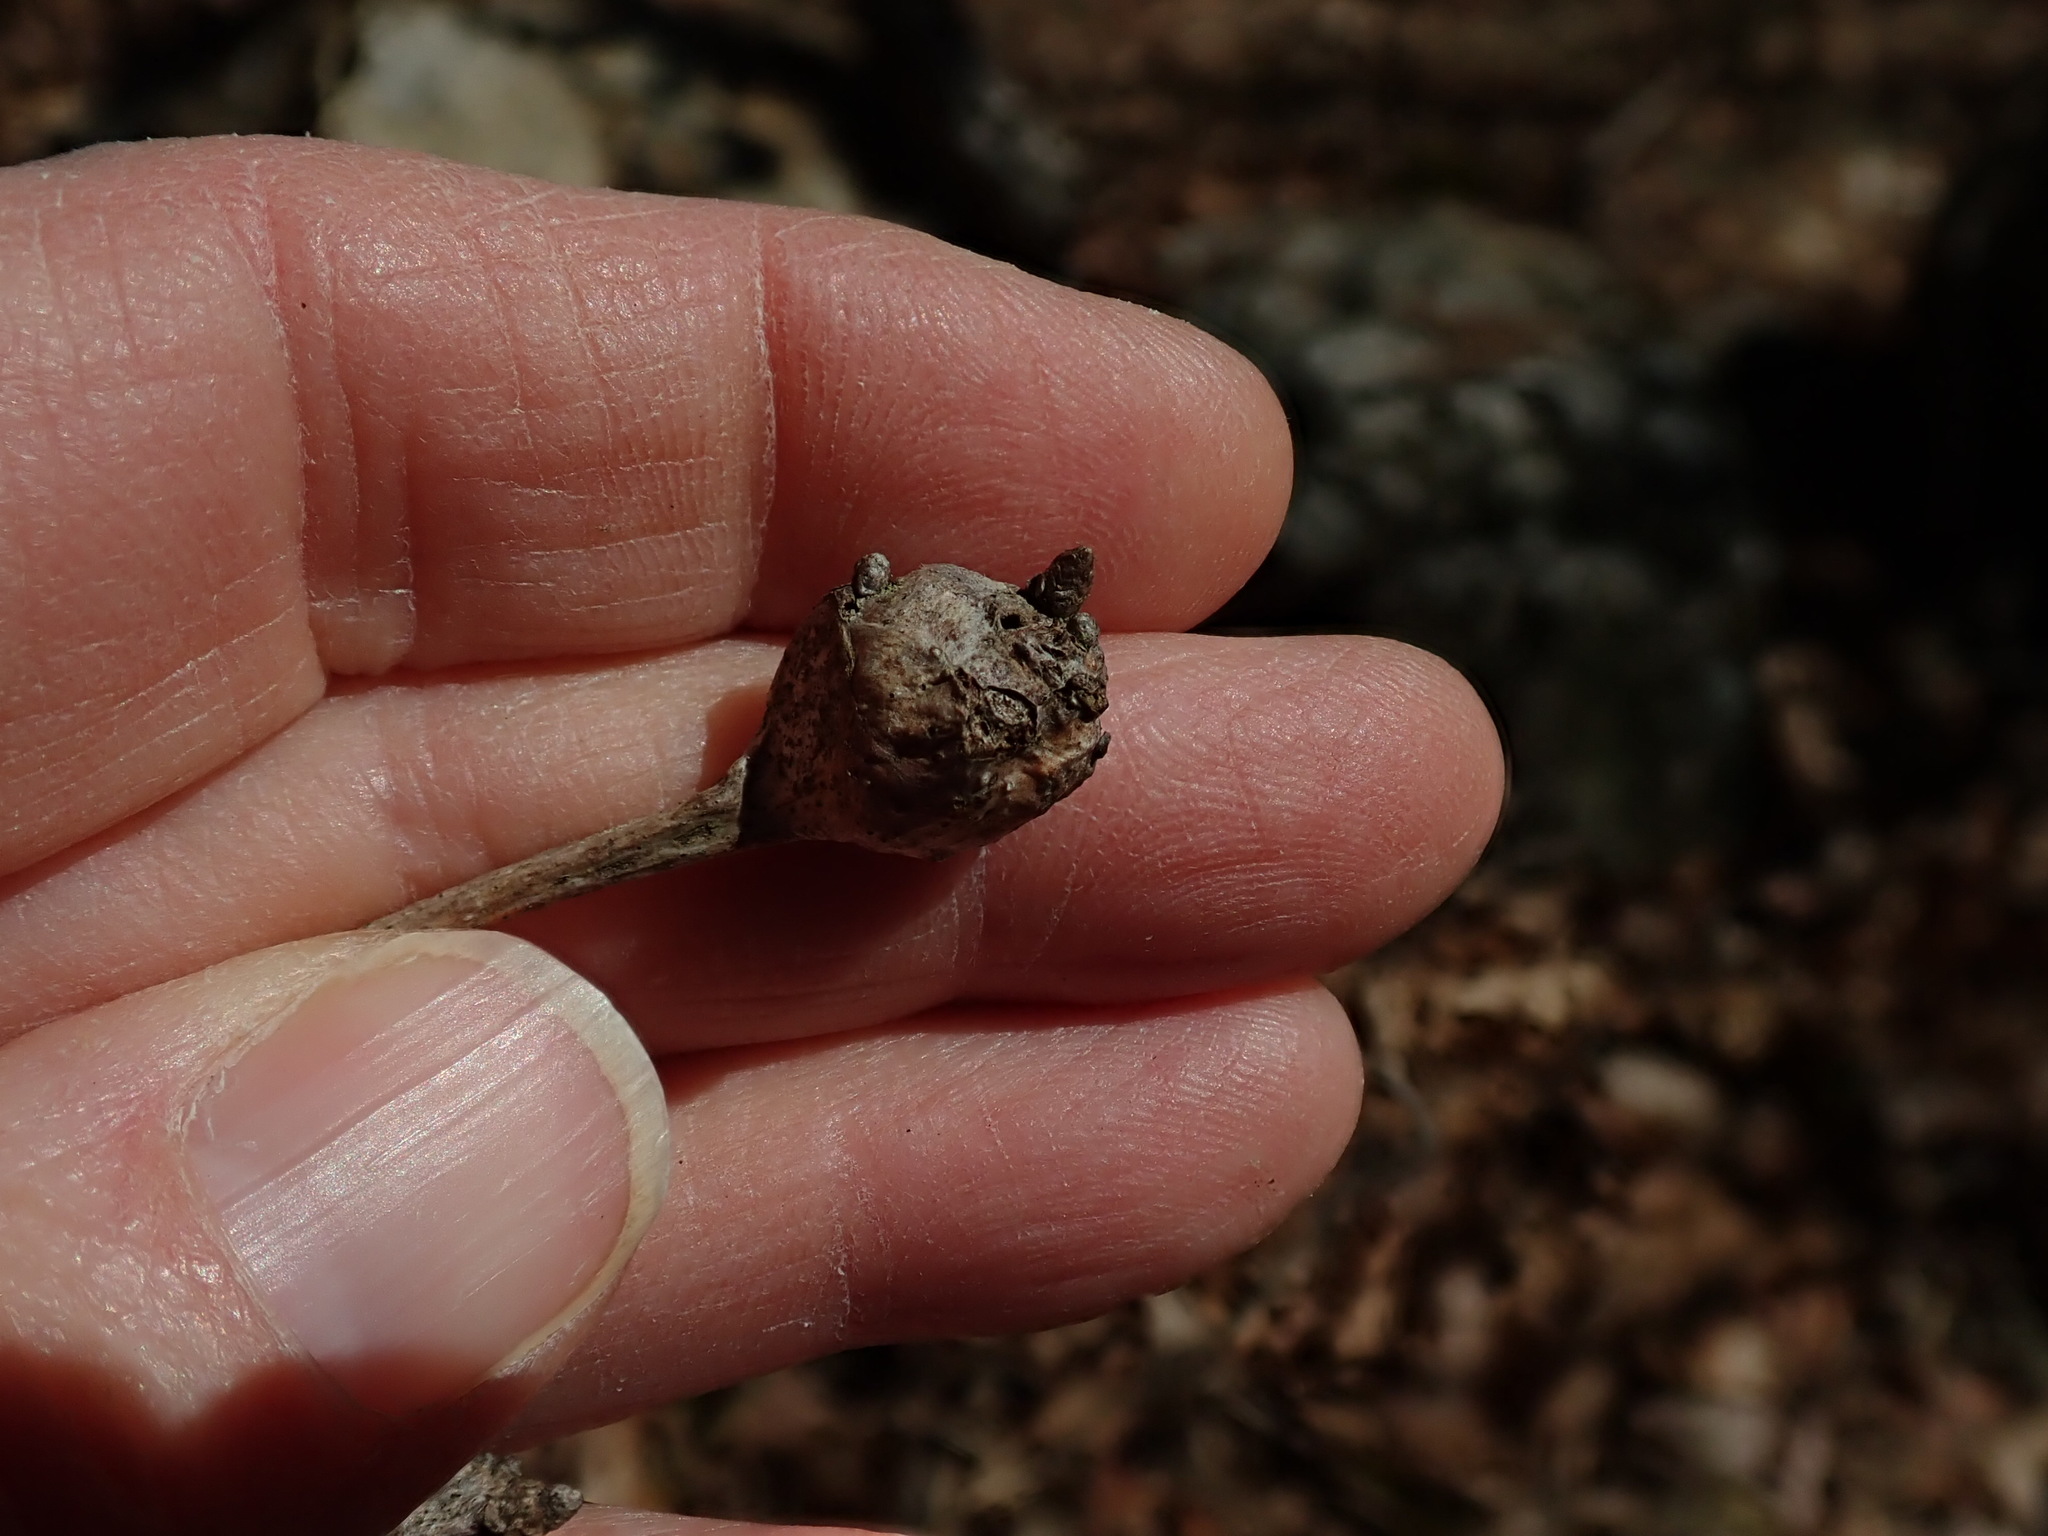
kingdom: Animalia
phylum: Arthropoda
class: Insecta
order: Hymenoptera
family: Cynipidae
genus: Callirhytis
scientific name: Callirhytis clavula
